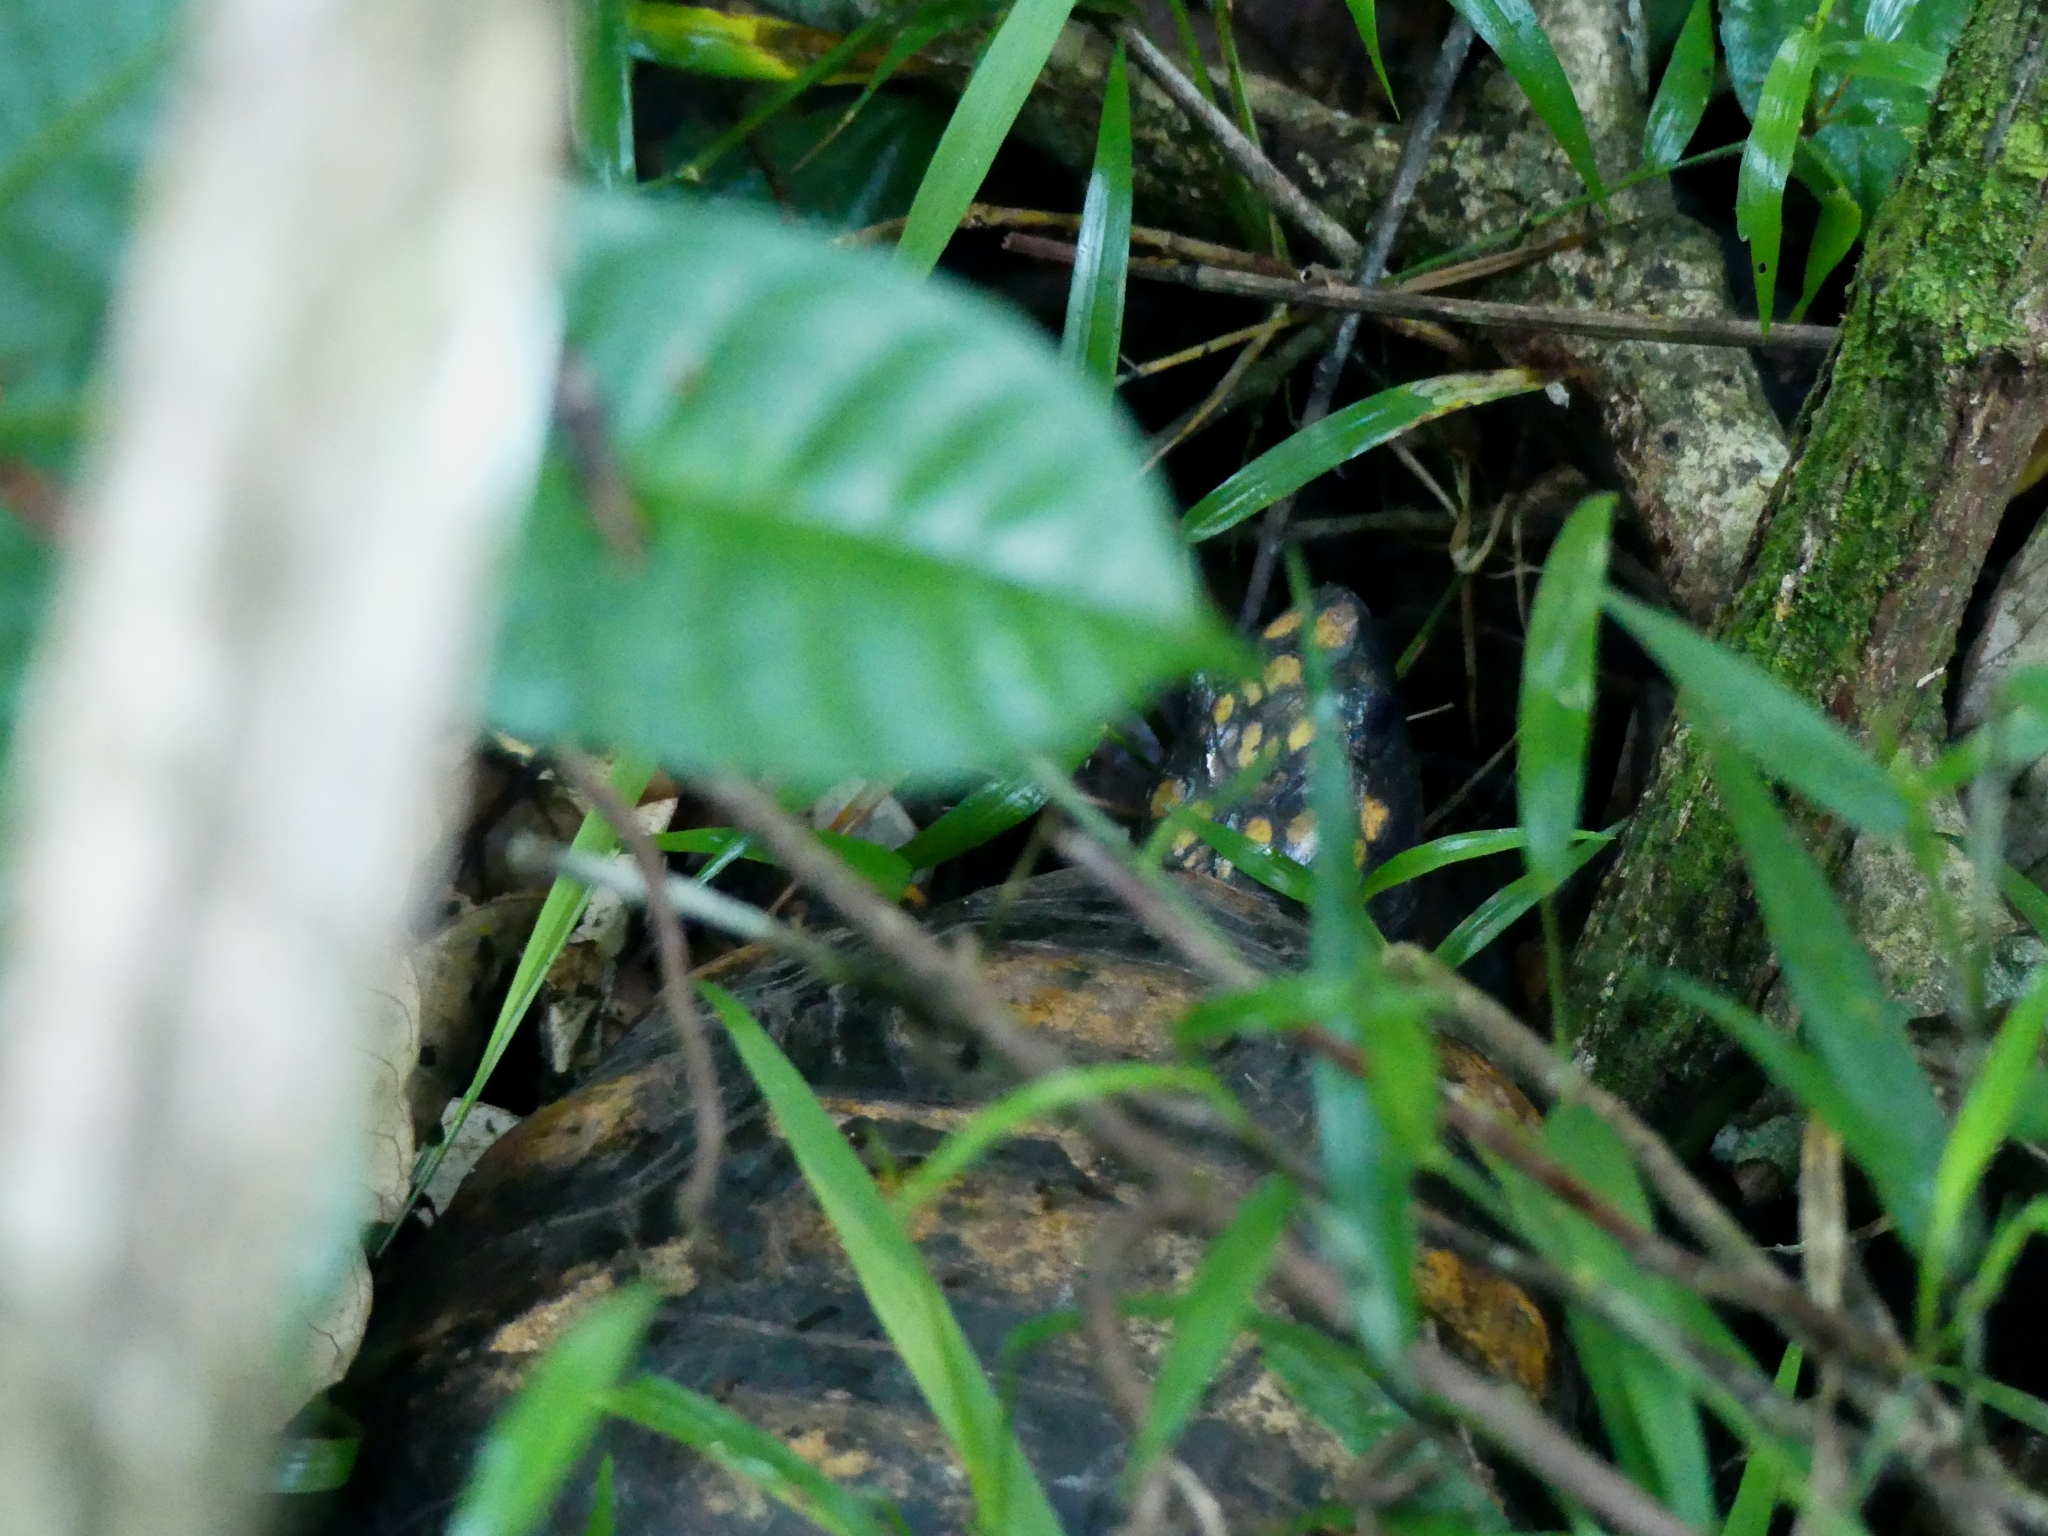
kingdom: Animalia
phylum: Chordata
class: Testudines
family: Testudinidae
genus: Chelonoidis
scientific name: Chelonoidis denticulatus
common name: Yellow-footed tortoise
